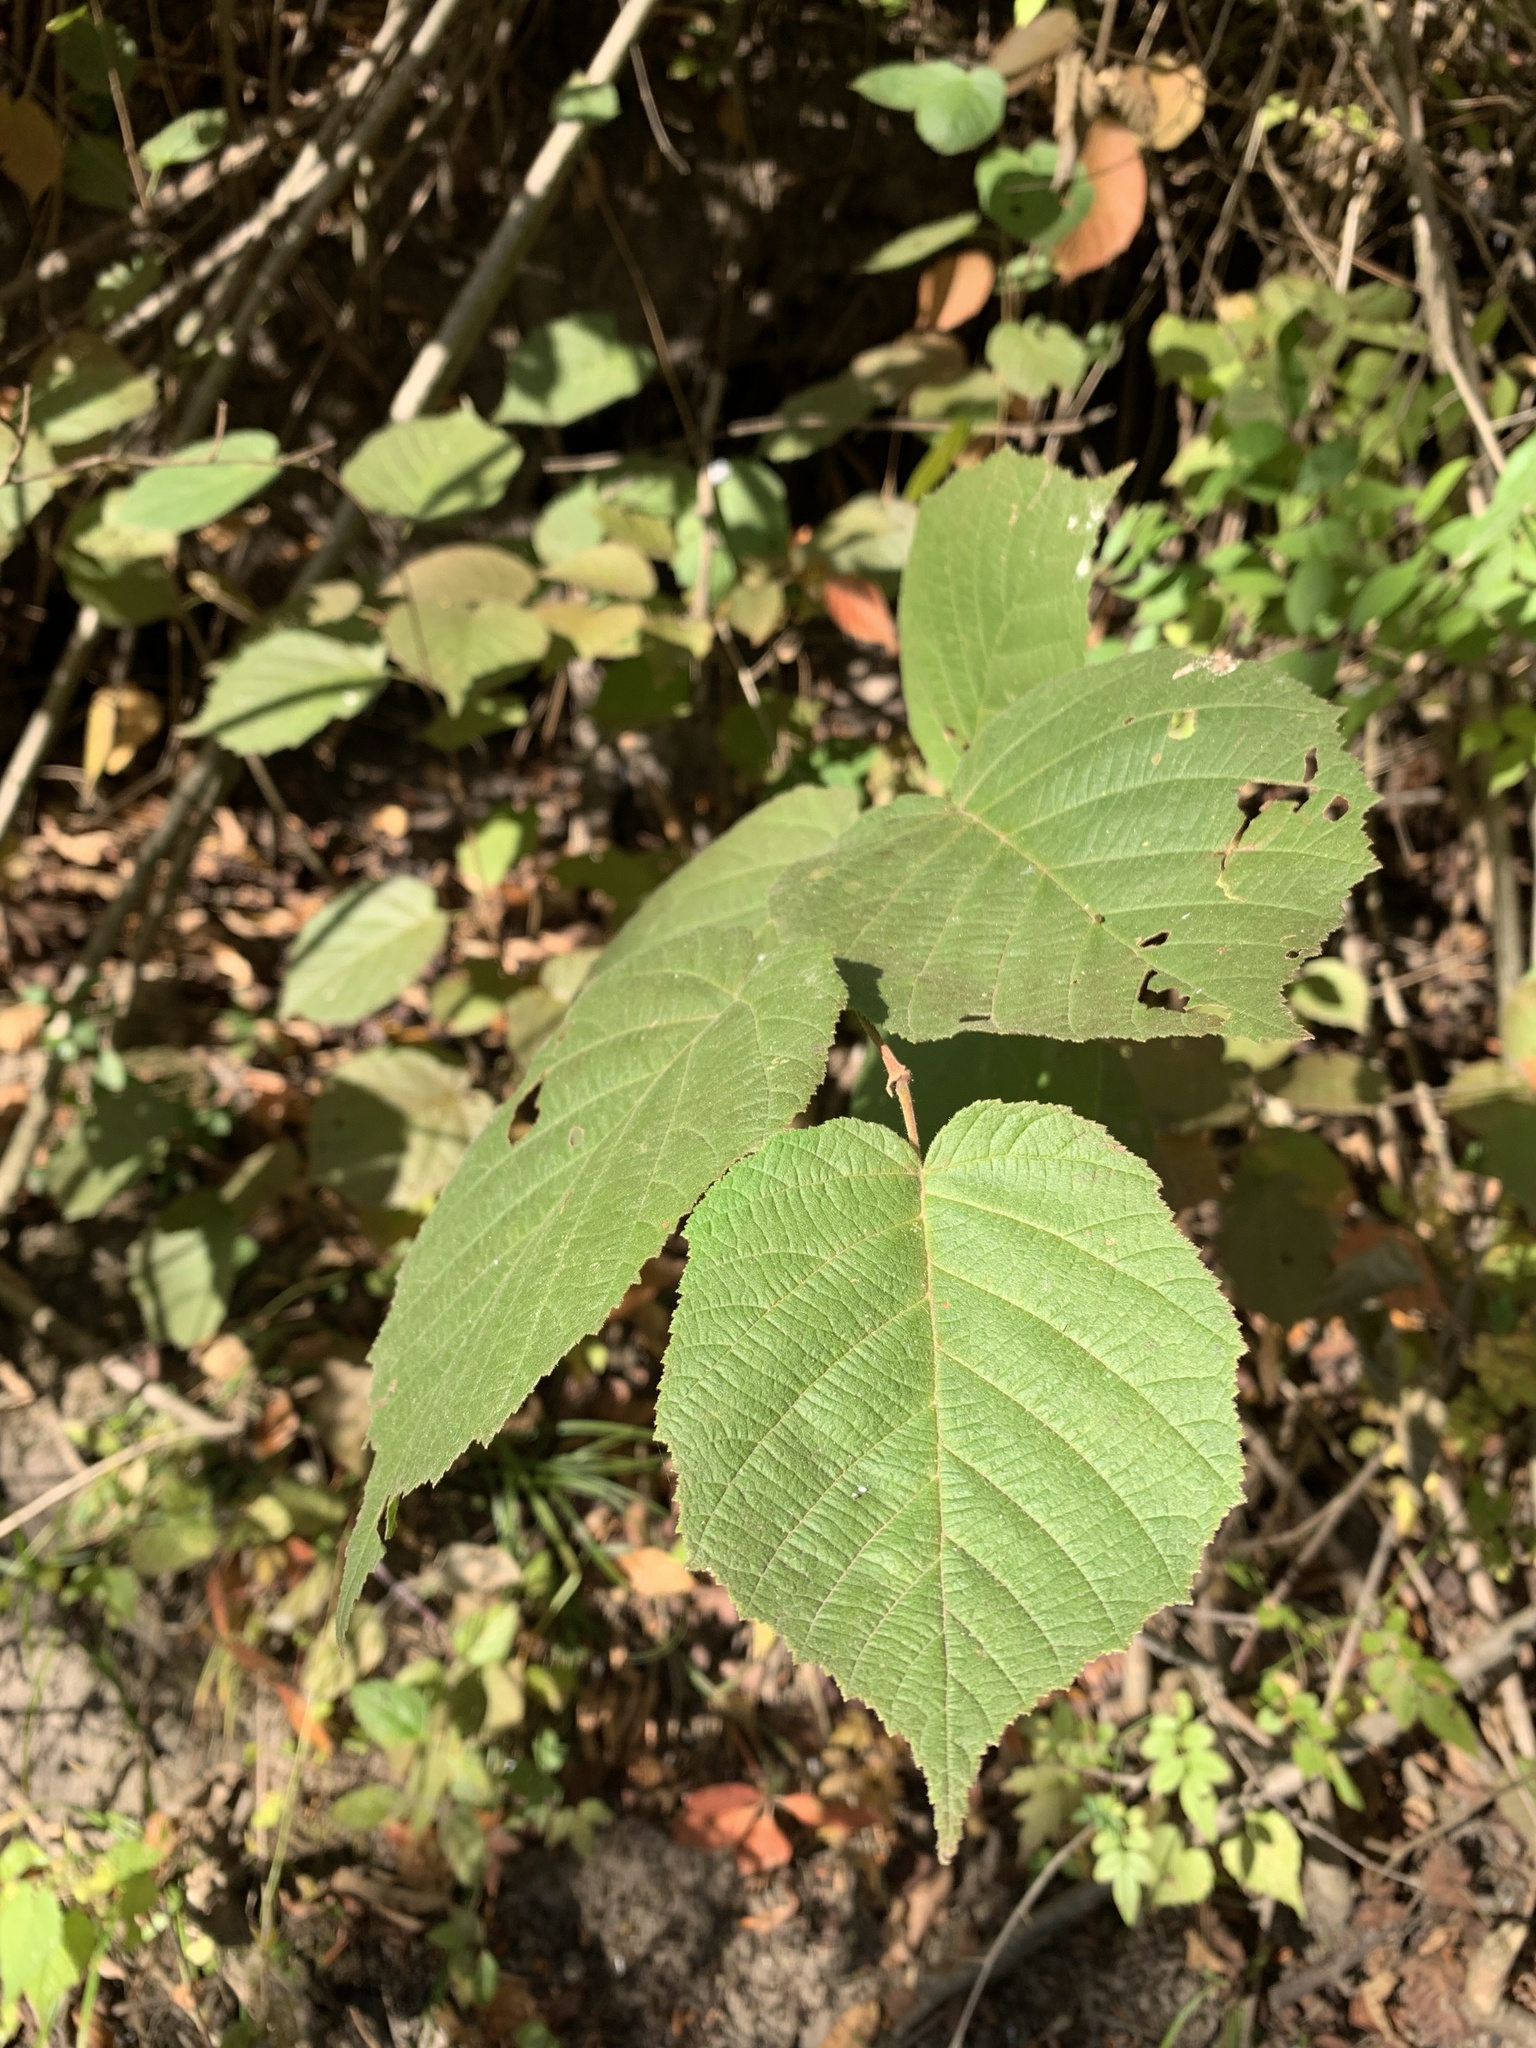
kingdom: Plantae
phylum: Tracheophyta
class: Magnoliopsida
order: Fagales
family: Betulaceae
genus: Corylus
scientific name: Corylus americana
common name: American hazel
